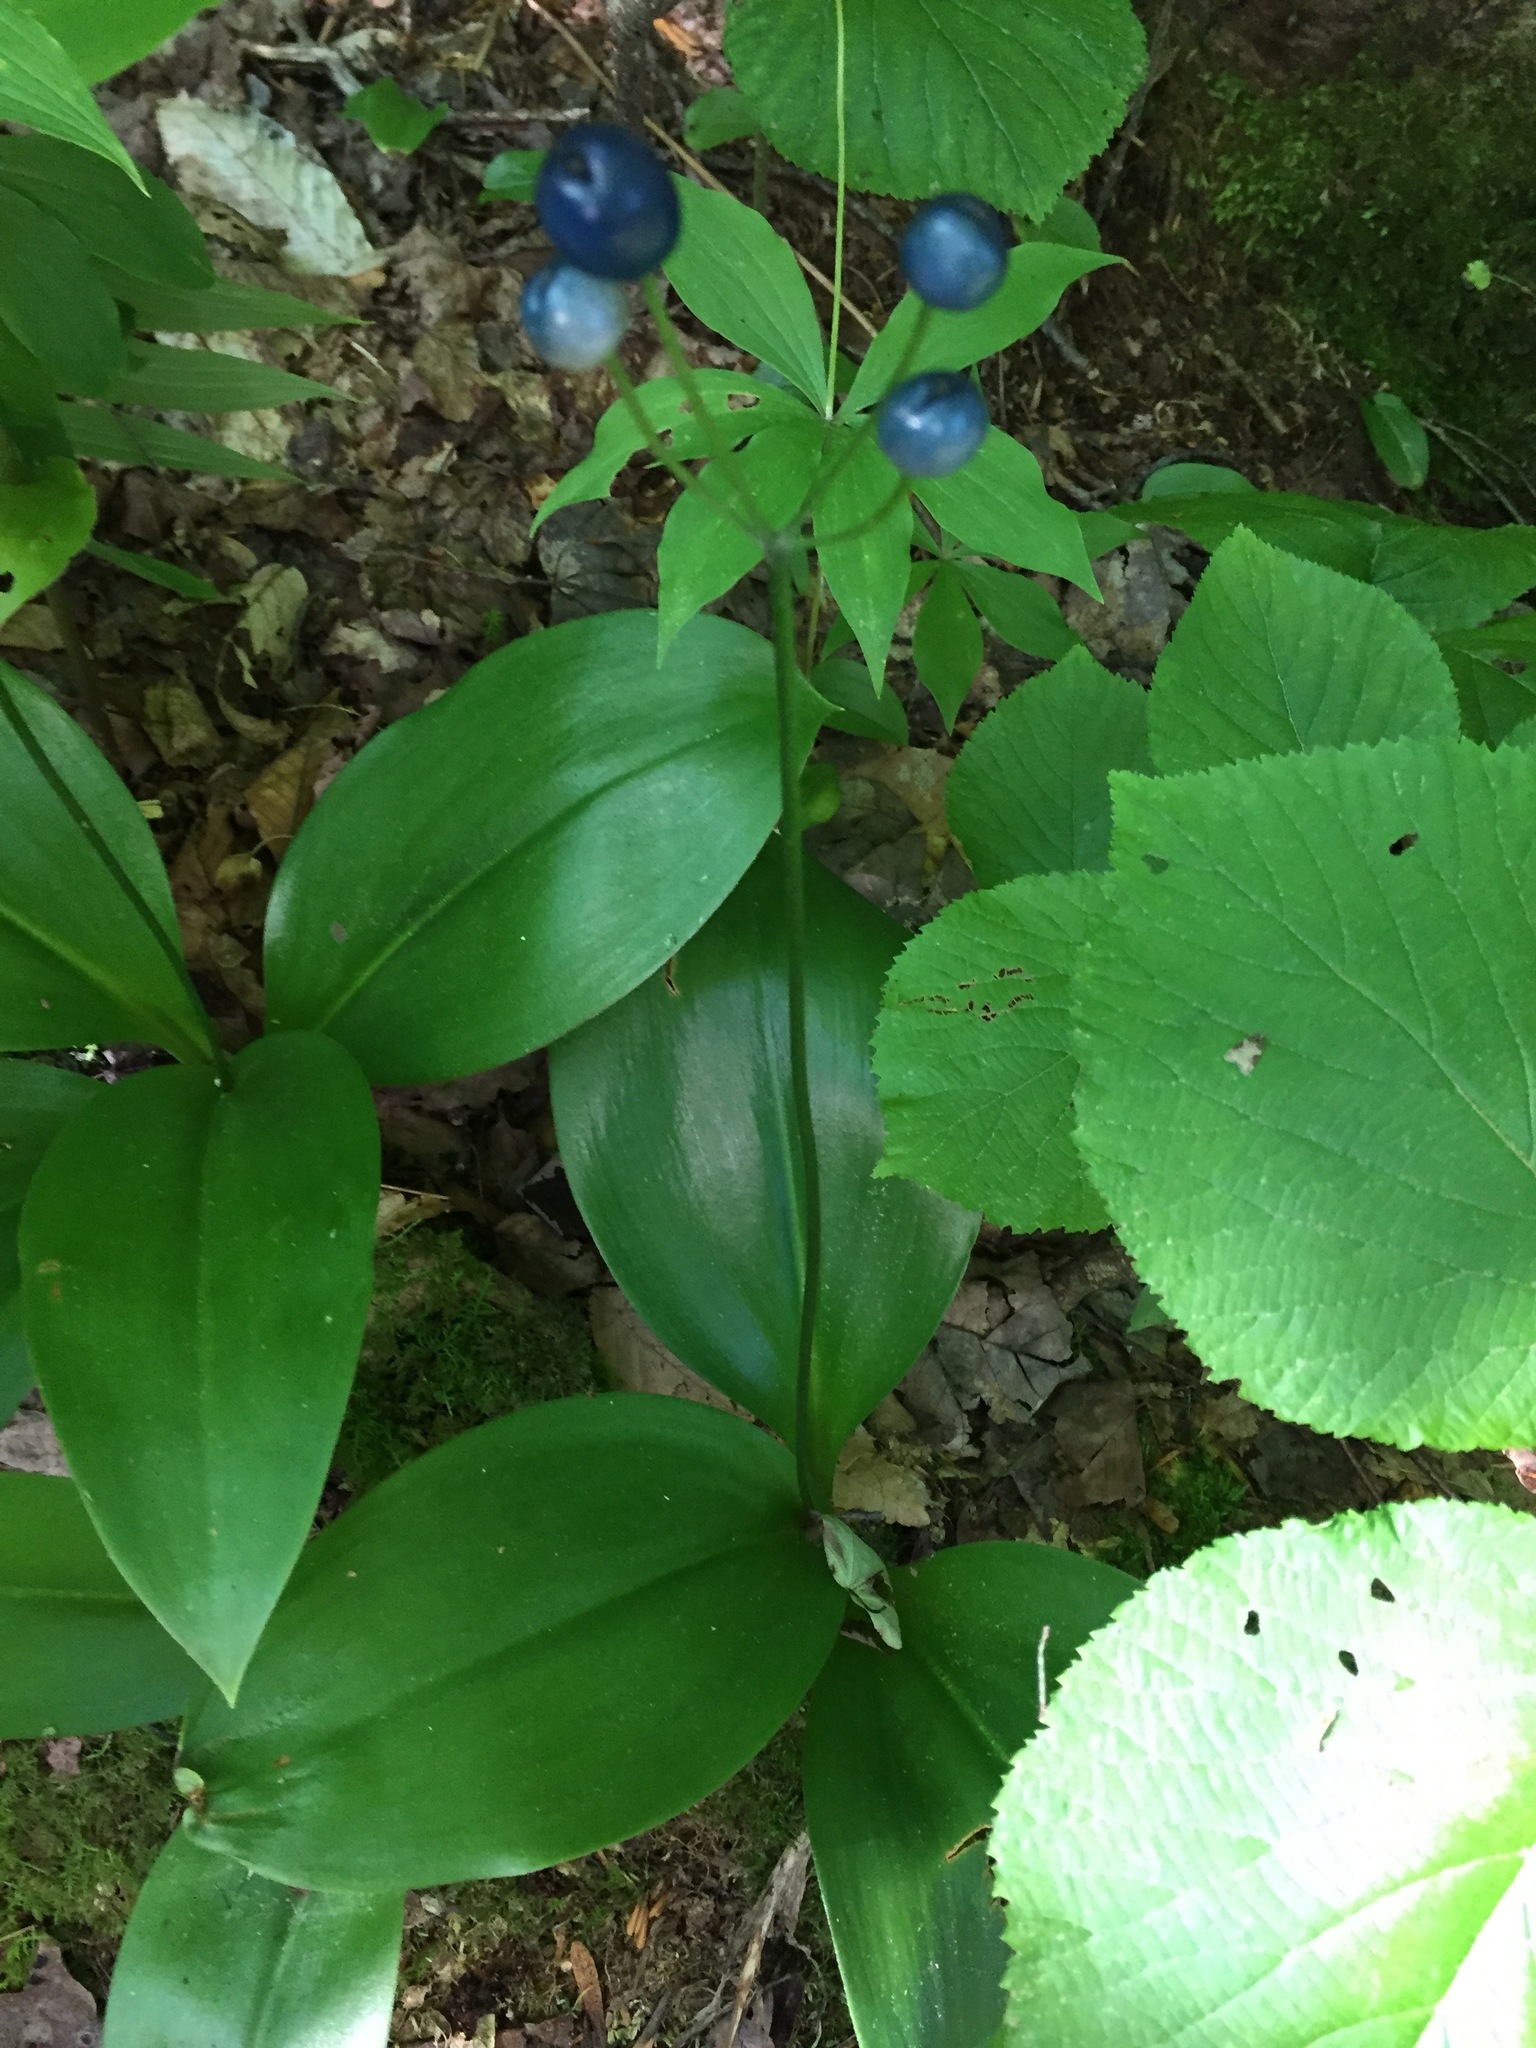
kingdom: Plantae
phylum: Tracheophyta
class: Liliopsida
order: Liliales
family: Liliaceae
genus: Clintonia
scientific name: Clintonia borealis
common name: Yellow clintonia
